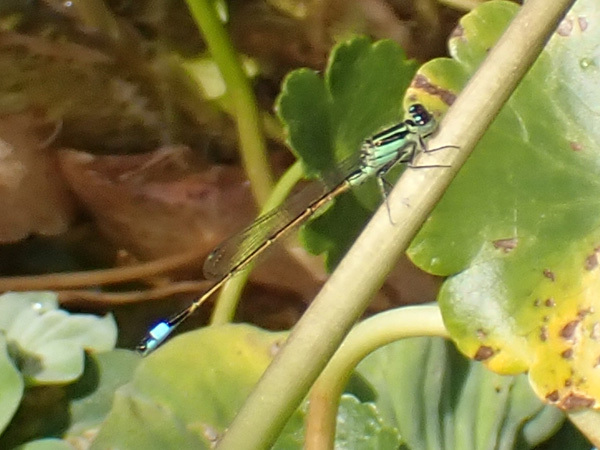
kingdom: Animalia
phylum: Arthropoda
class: Insecta
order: Odonata
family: Coenagrionidae
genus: Ischnura
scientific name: Ischnura ramburii
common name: Rambur's forktail
